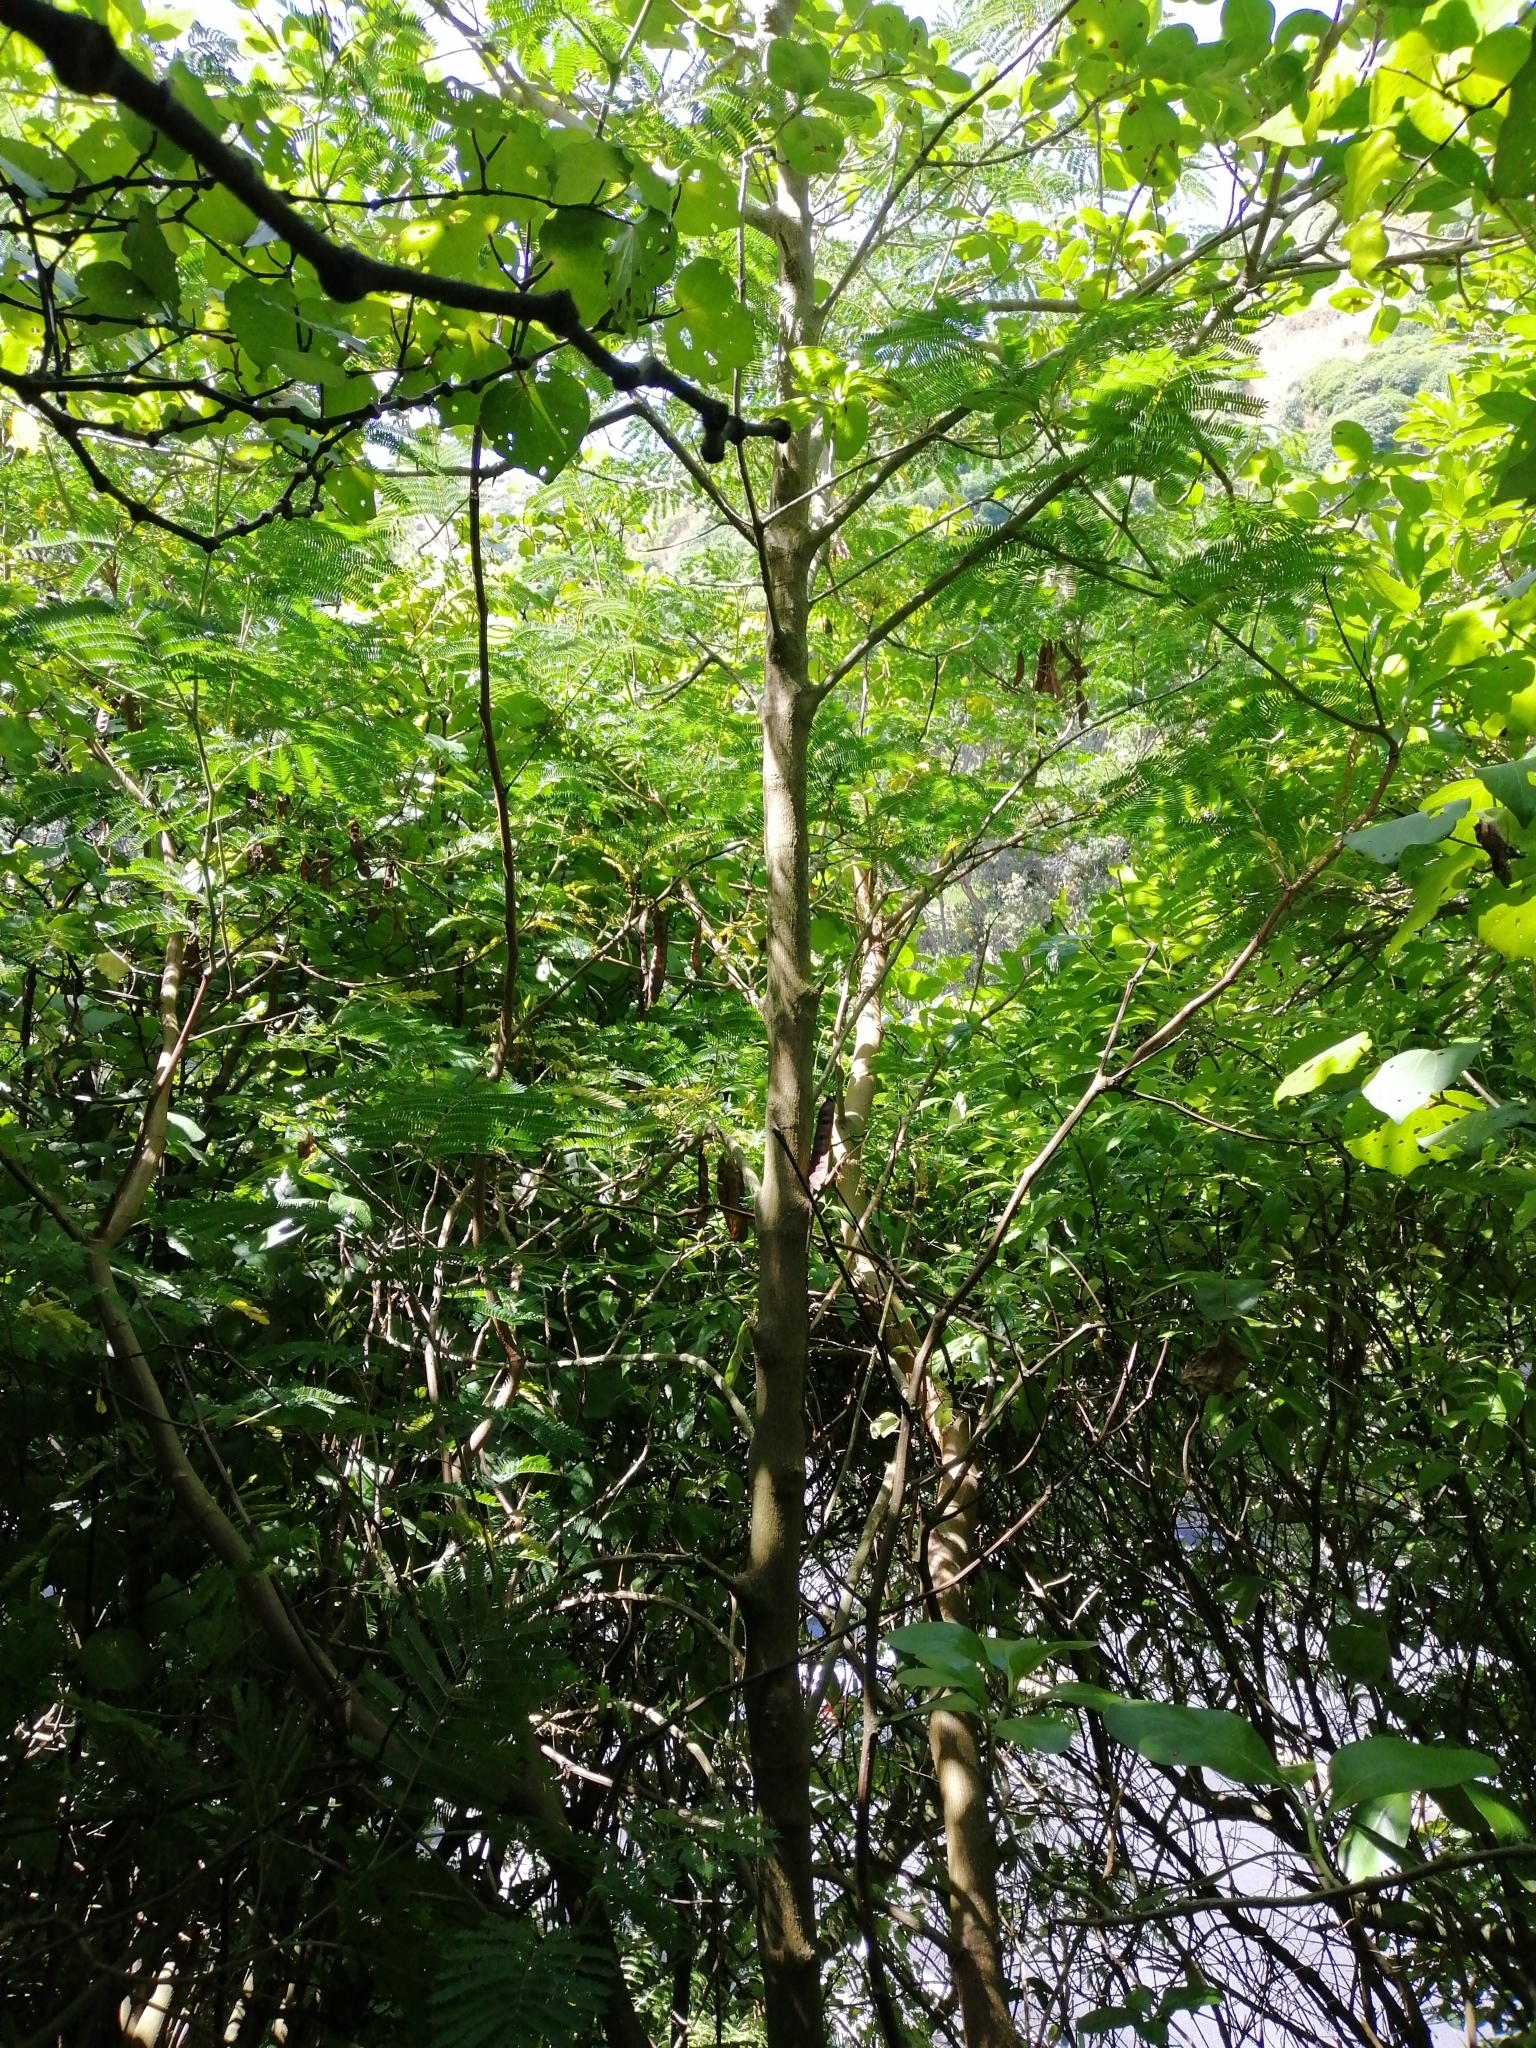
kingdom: Plantae
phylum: Tracheophyta
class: Magnoliopsida
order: Fabales
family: Fabaceae
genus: Paraserianthes
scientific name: Paraserianthes lophantha
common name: Plume albizia
